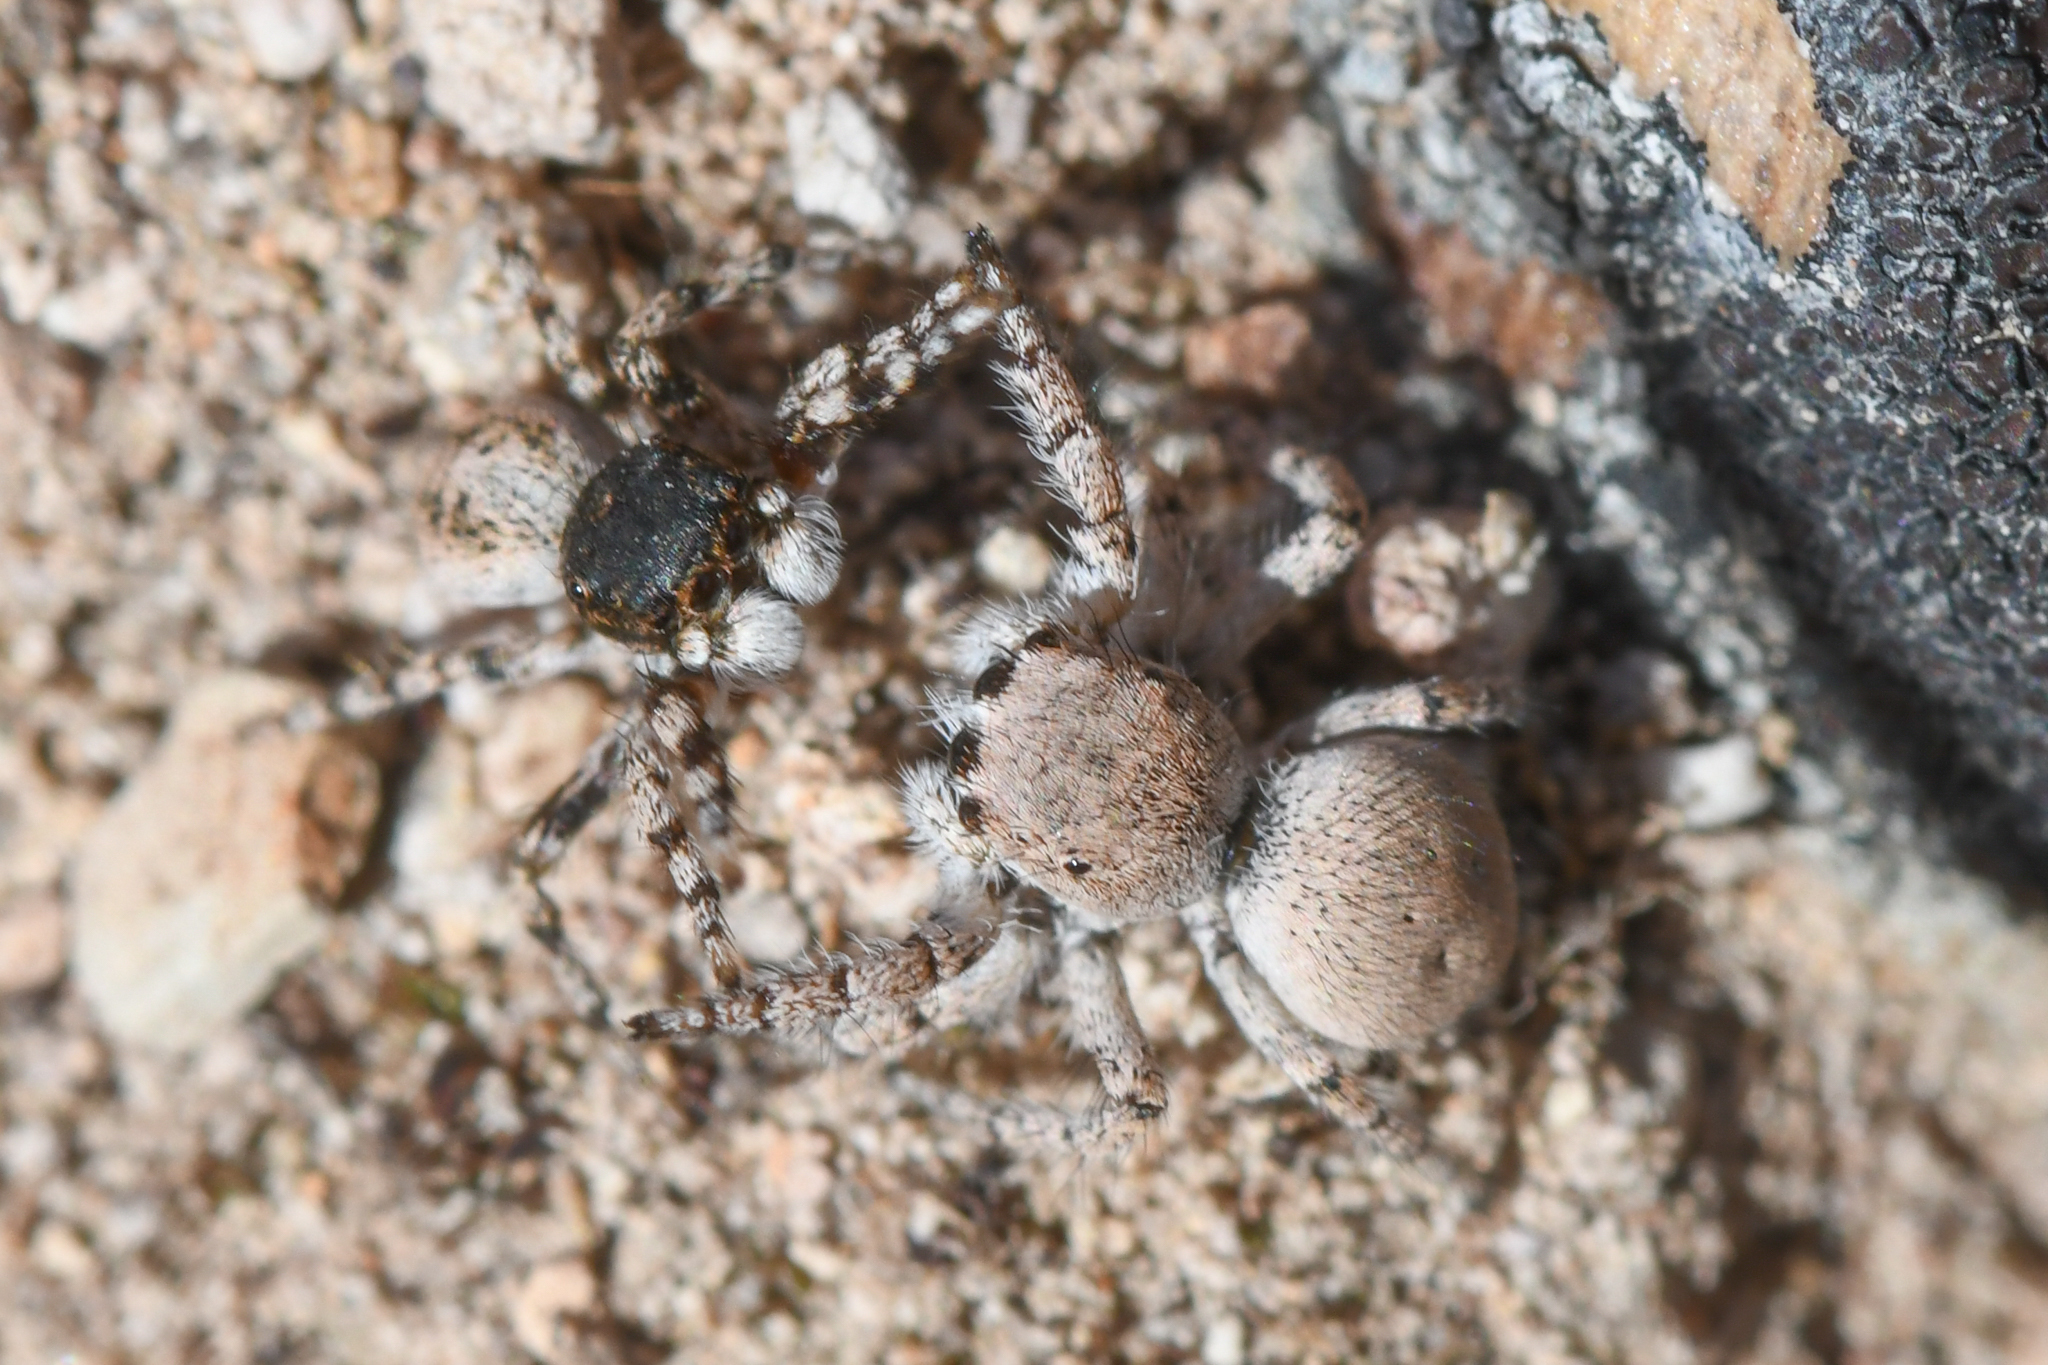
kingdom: Animalia
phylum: Arthropoda
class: Arachnida
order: Araneae
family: Salticidae
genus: Habronattus
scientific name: Habronattus ustulatus
